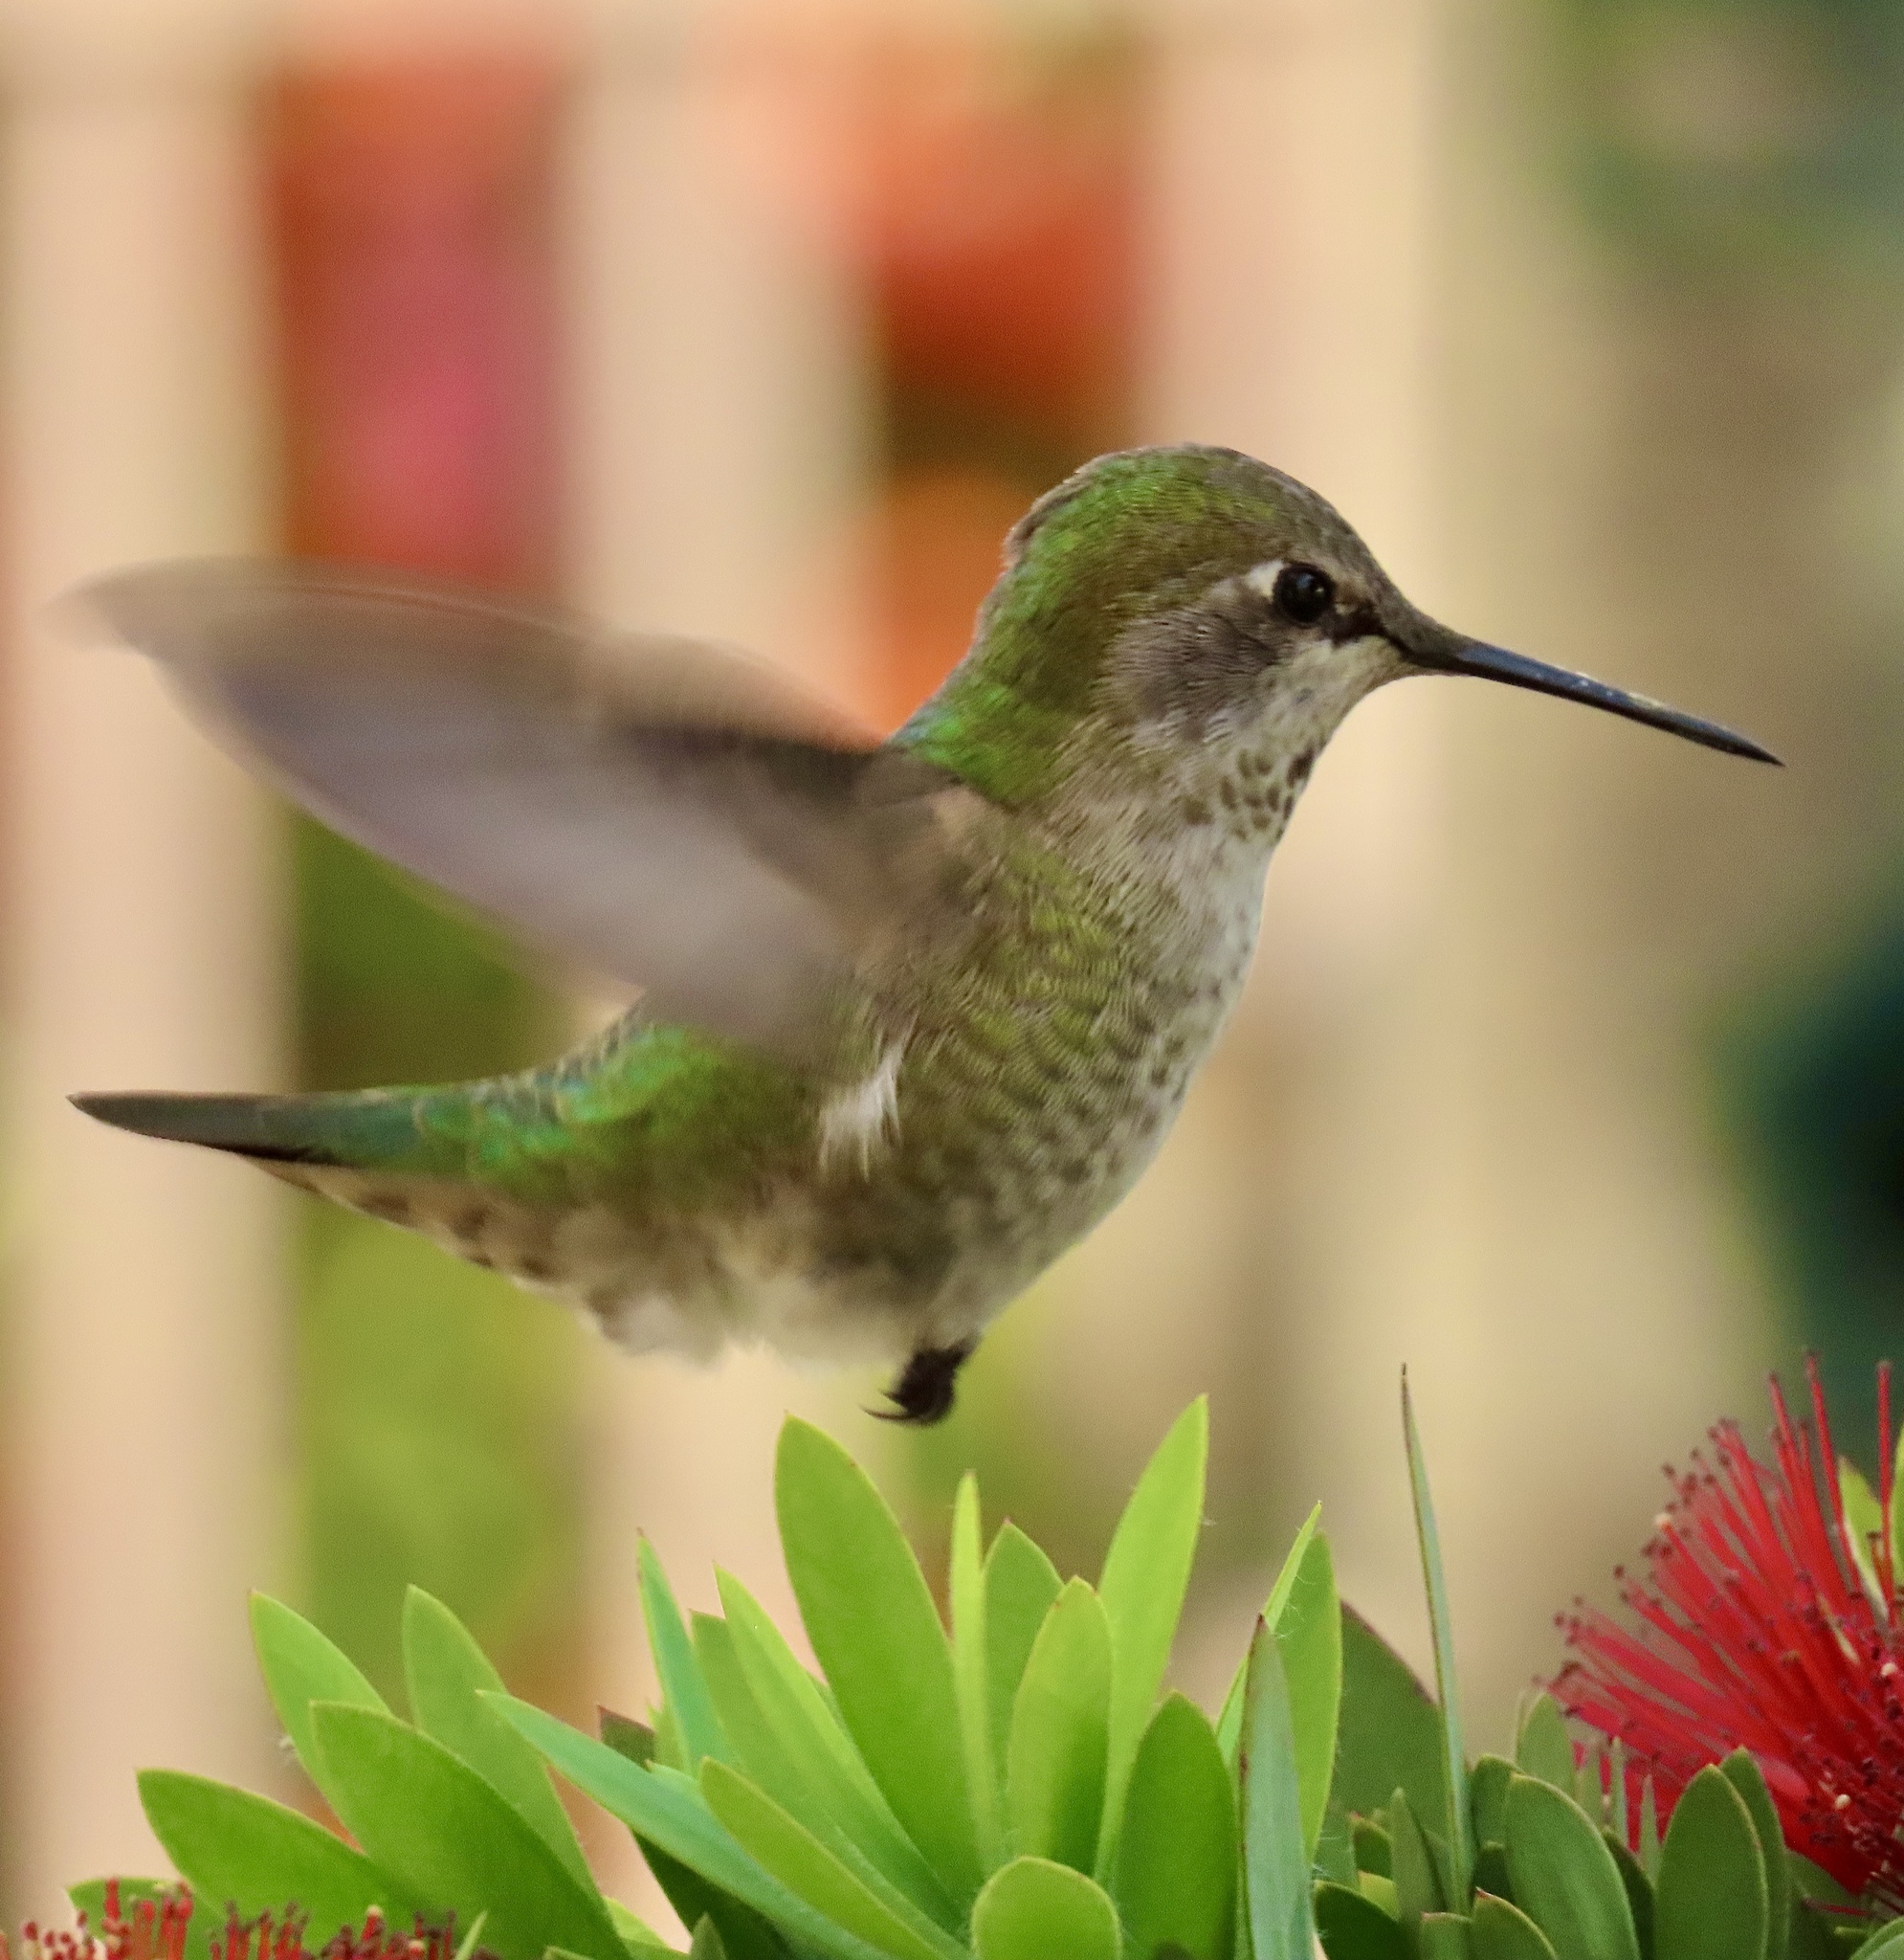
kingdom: Animalia
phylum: Chordata
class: Aves
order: Apodiformes
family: Trochilidae
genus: Calypte
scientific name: Calypte anna
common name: Anna's hummingbird
